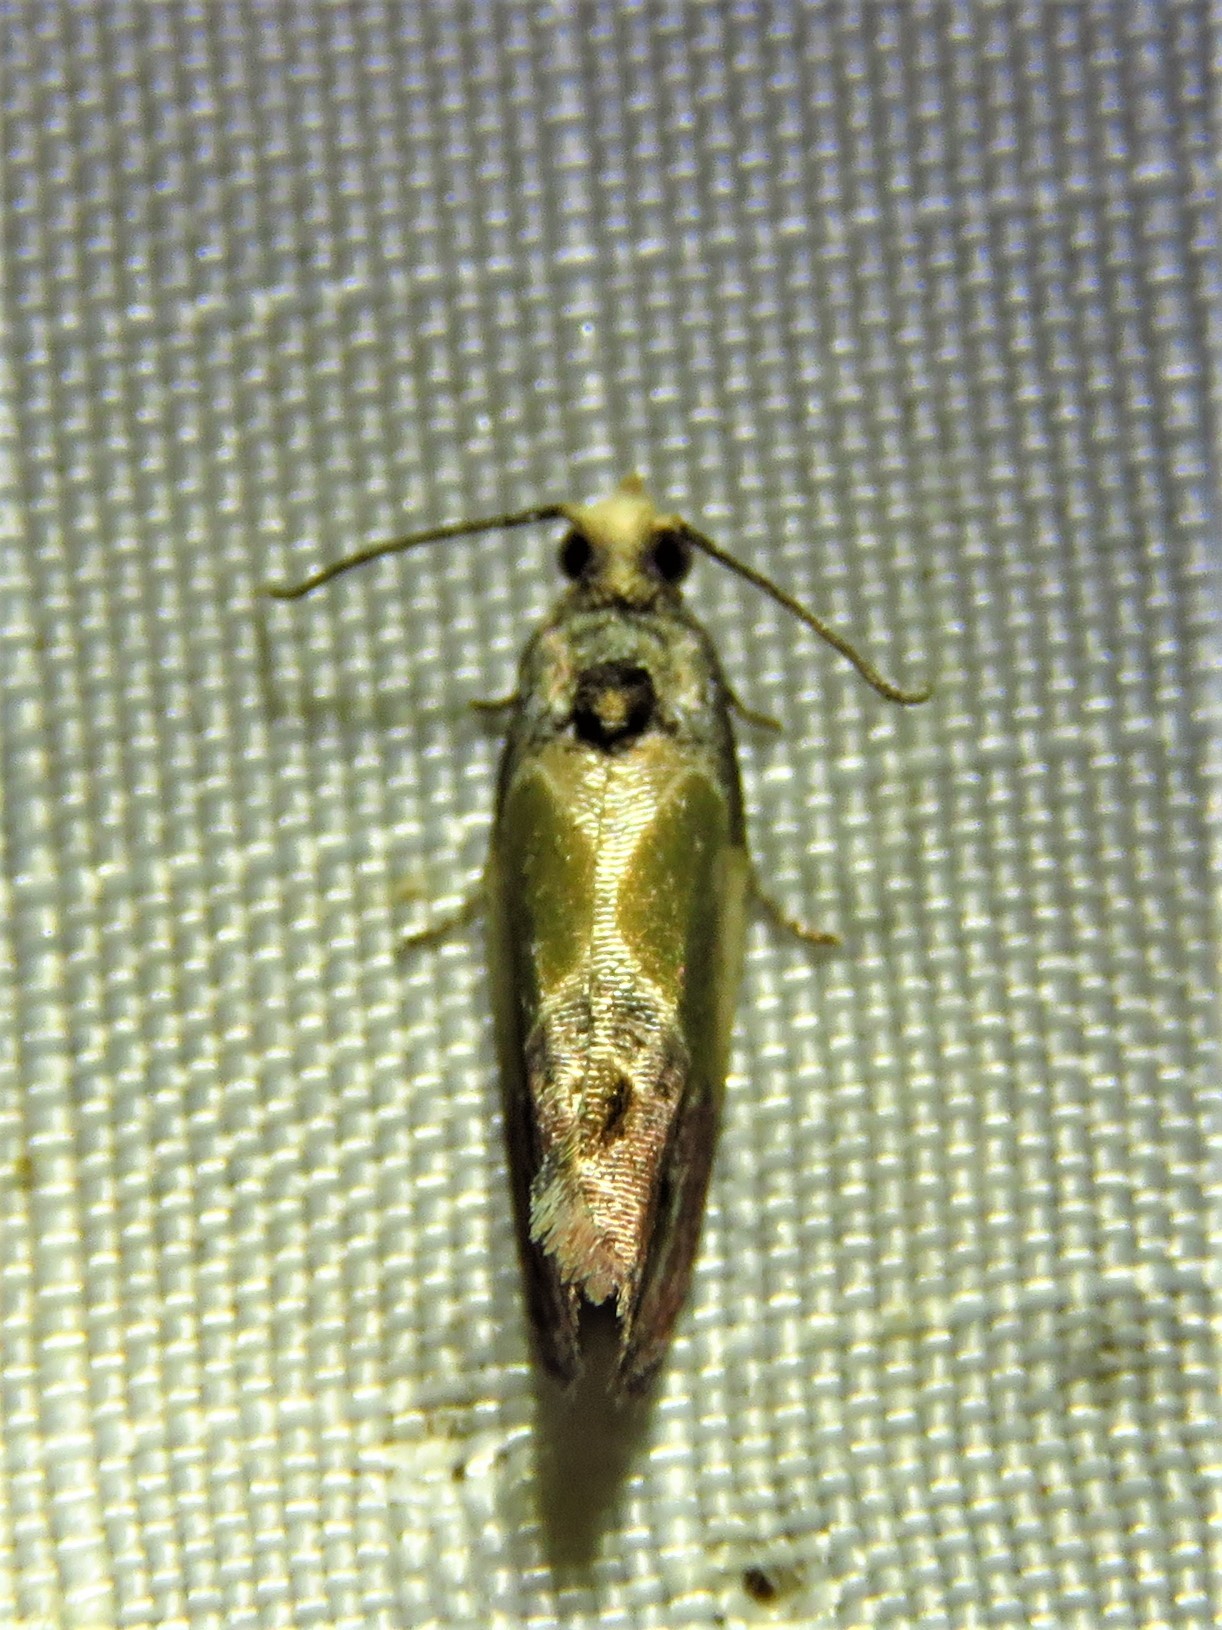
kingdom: Animalia
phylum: Arthropoda
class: Insecta
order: Lepidoptera
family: Tortricidae
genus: Eumarozia
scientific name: Eumarozia malachitana
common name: Sculptured moth
